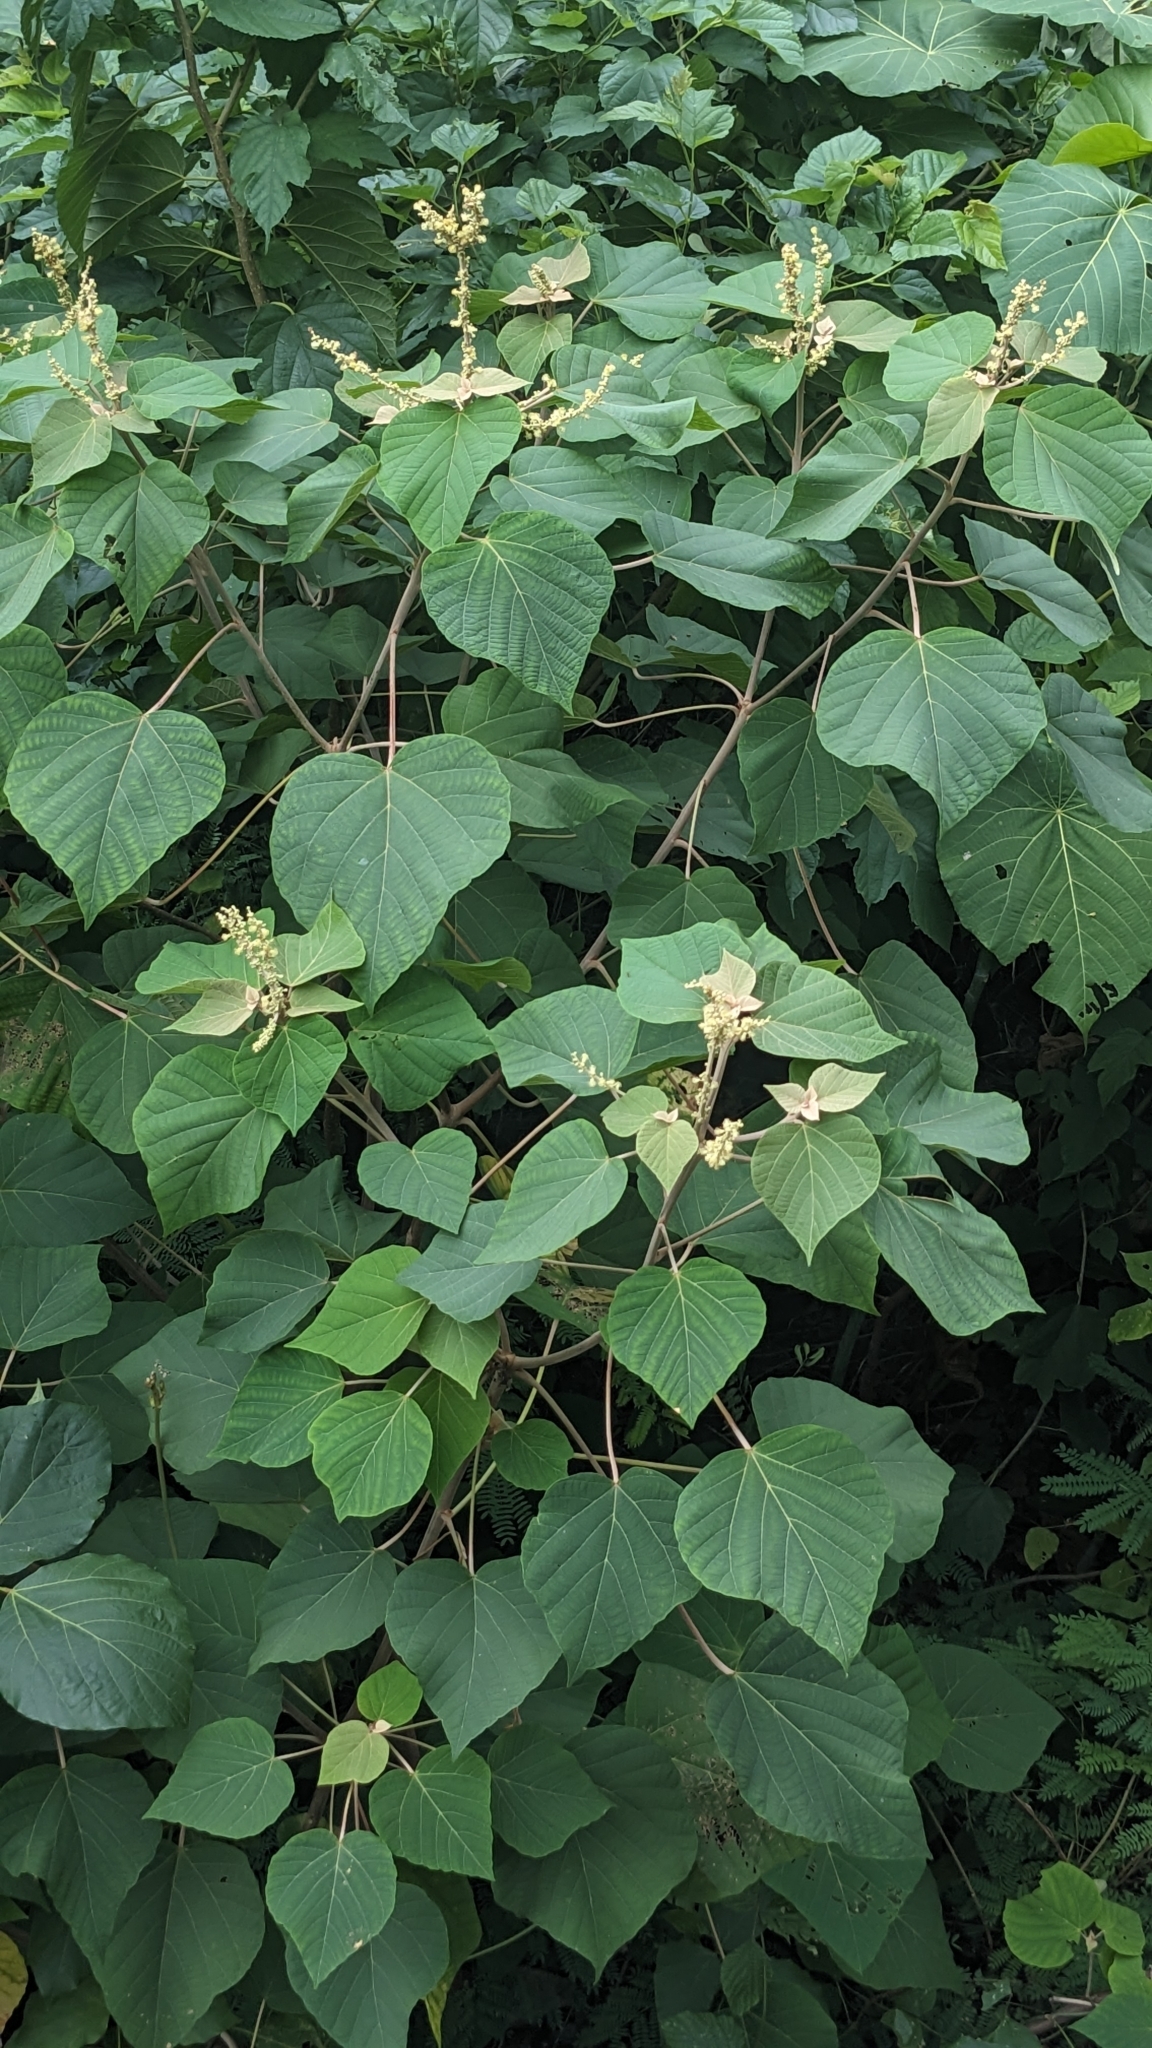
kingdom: Plantae
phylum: Tracheophyta
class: Magnoliopsida
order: Malpighiales
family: Euphorbiaceae
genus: Mallotus
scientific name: Mallotus japonicus
